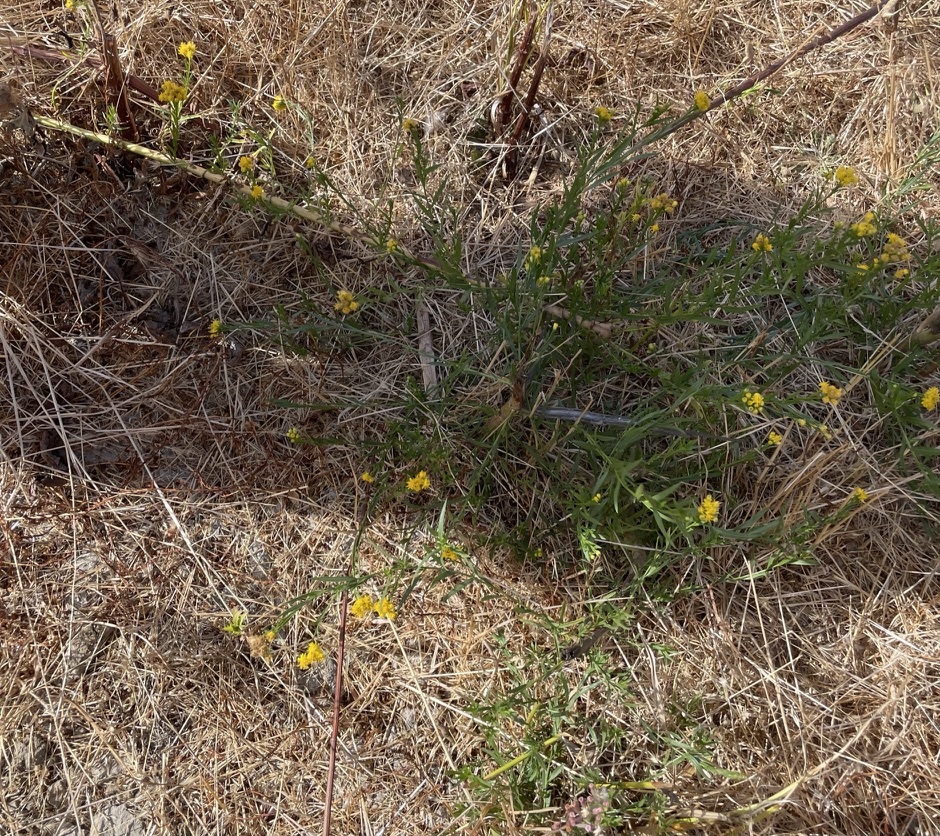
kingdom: Plantae
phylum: Tracheophyta
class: Magnoliopsida
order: Asterales
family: Asteraceae
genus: Euthamia
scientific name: Euthamia occidentalis
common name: Western goldentop
